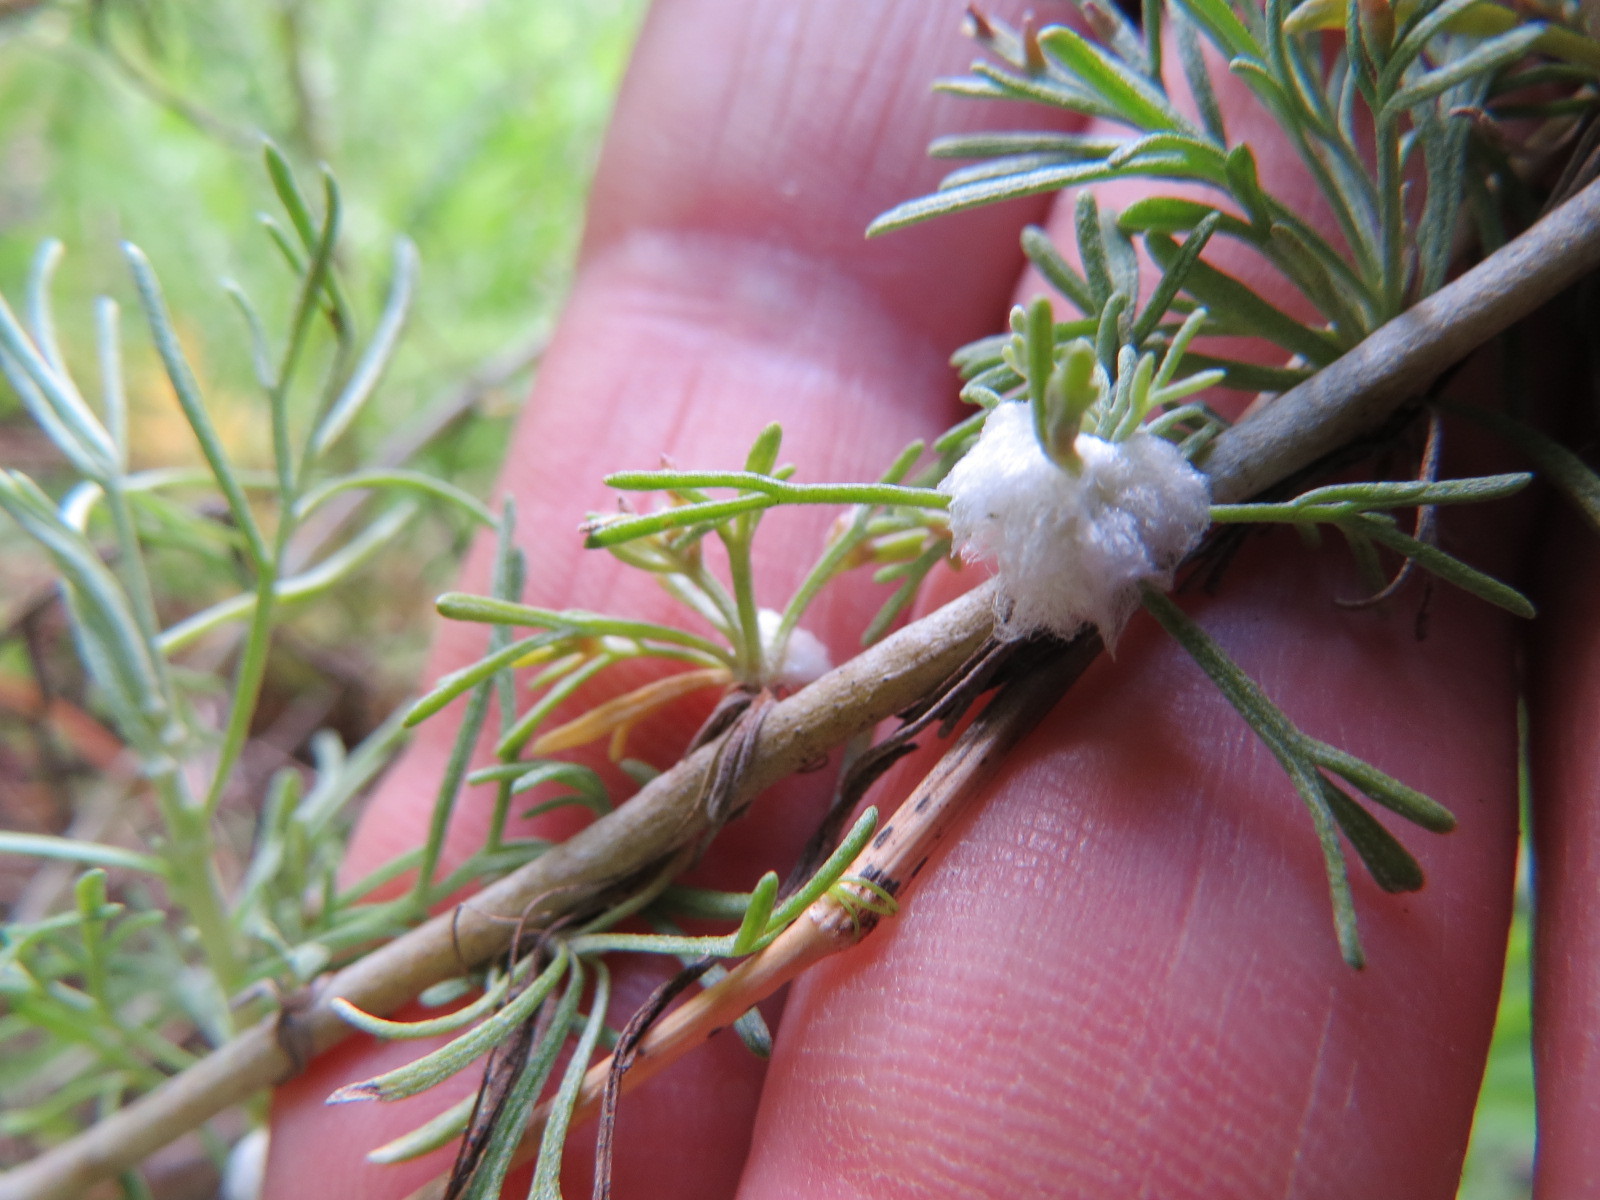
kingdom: Animalia
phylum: Arthropoda
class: Insecta
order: Diptera
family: Cecidomyiidae
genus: Rhopalomyia
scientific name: Rhopalomyia floccosa
